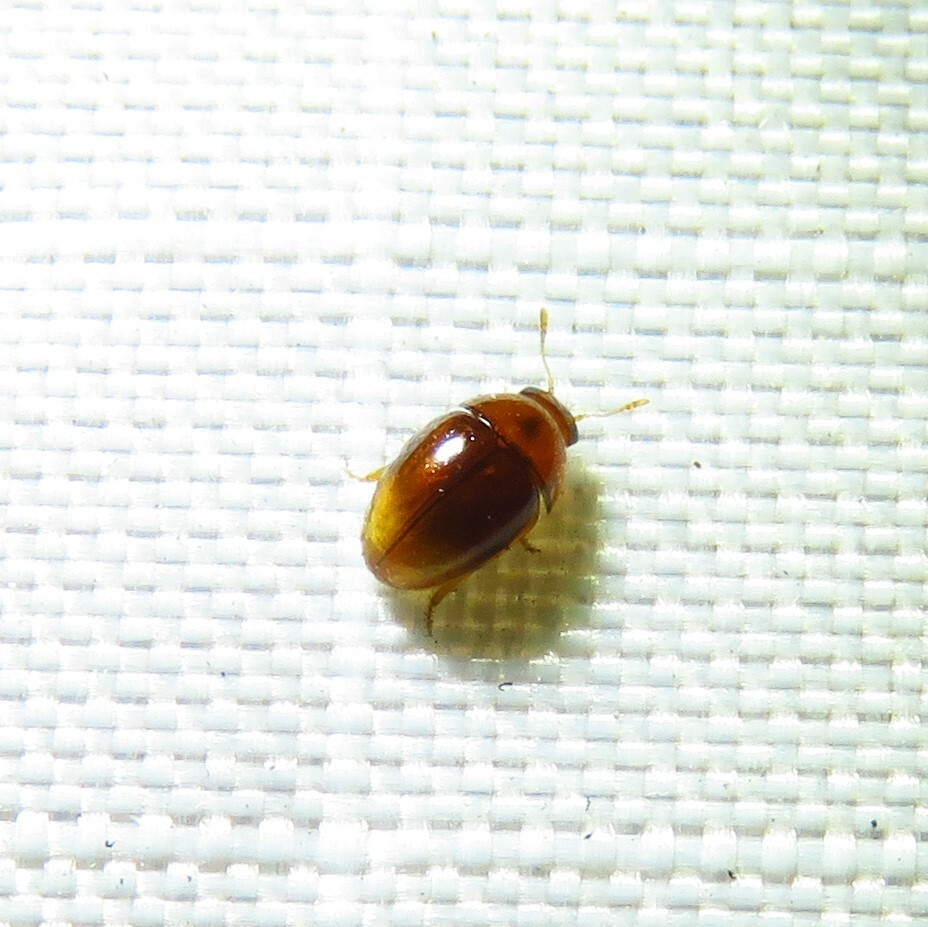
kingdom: Animalia
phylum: Arthropoda
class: Insecta
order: Coleoptera
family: Phalacridae
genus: Phalacrus
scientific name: Phalacrus apicalis
